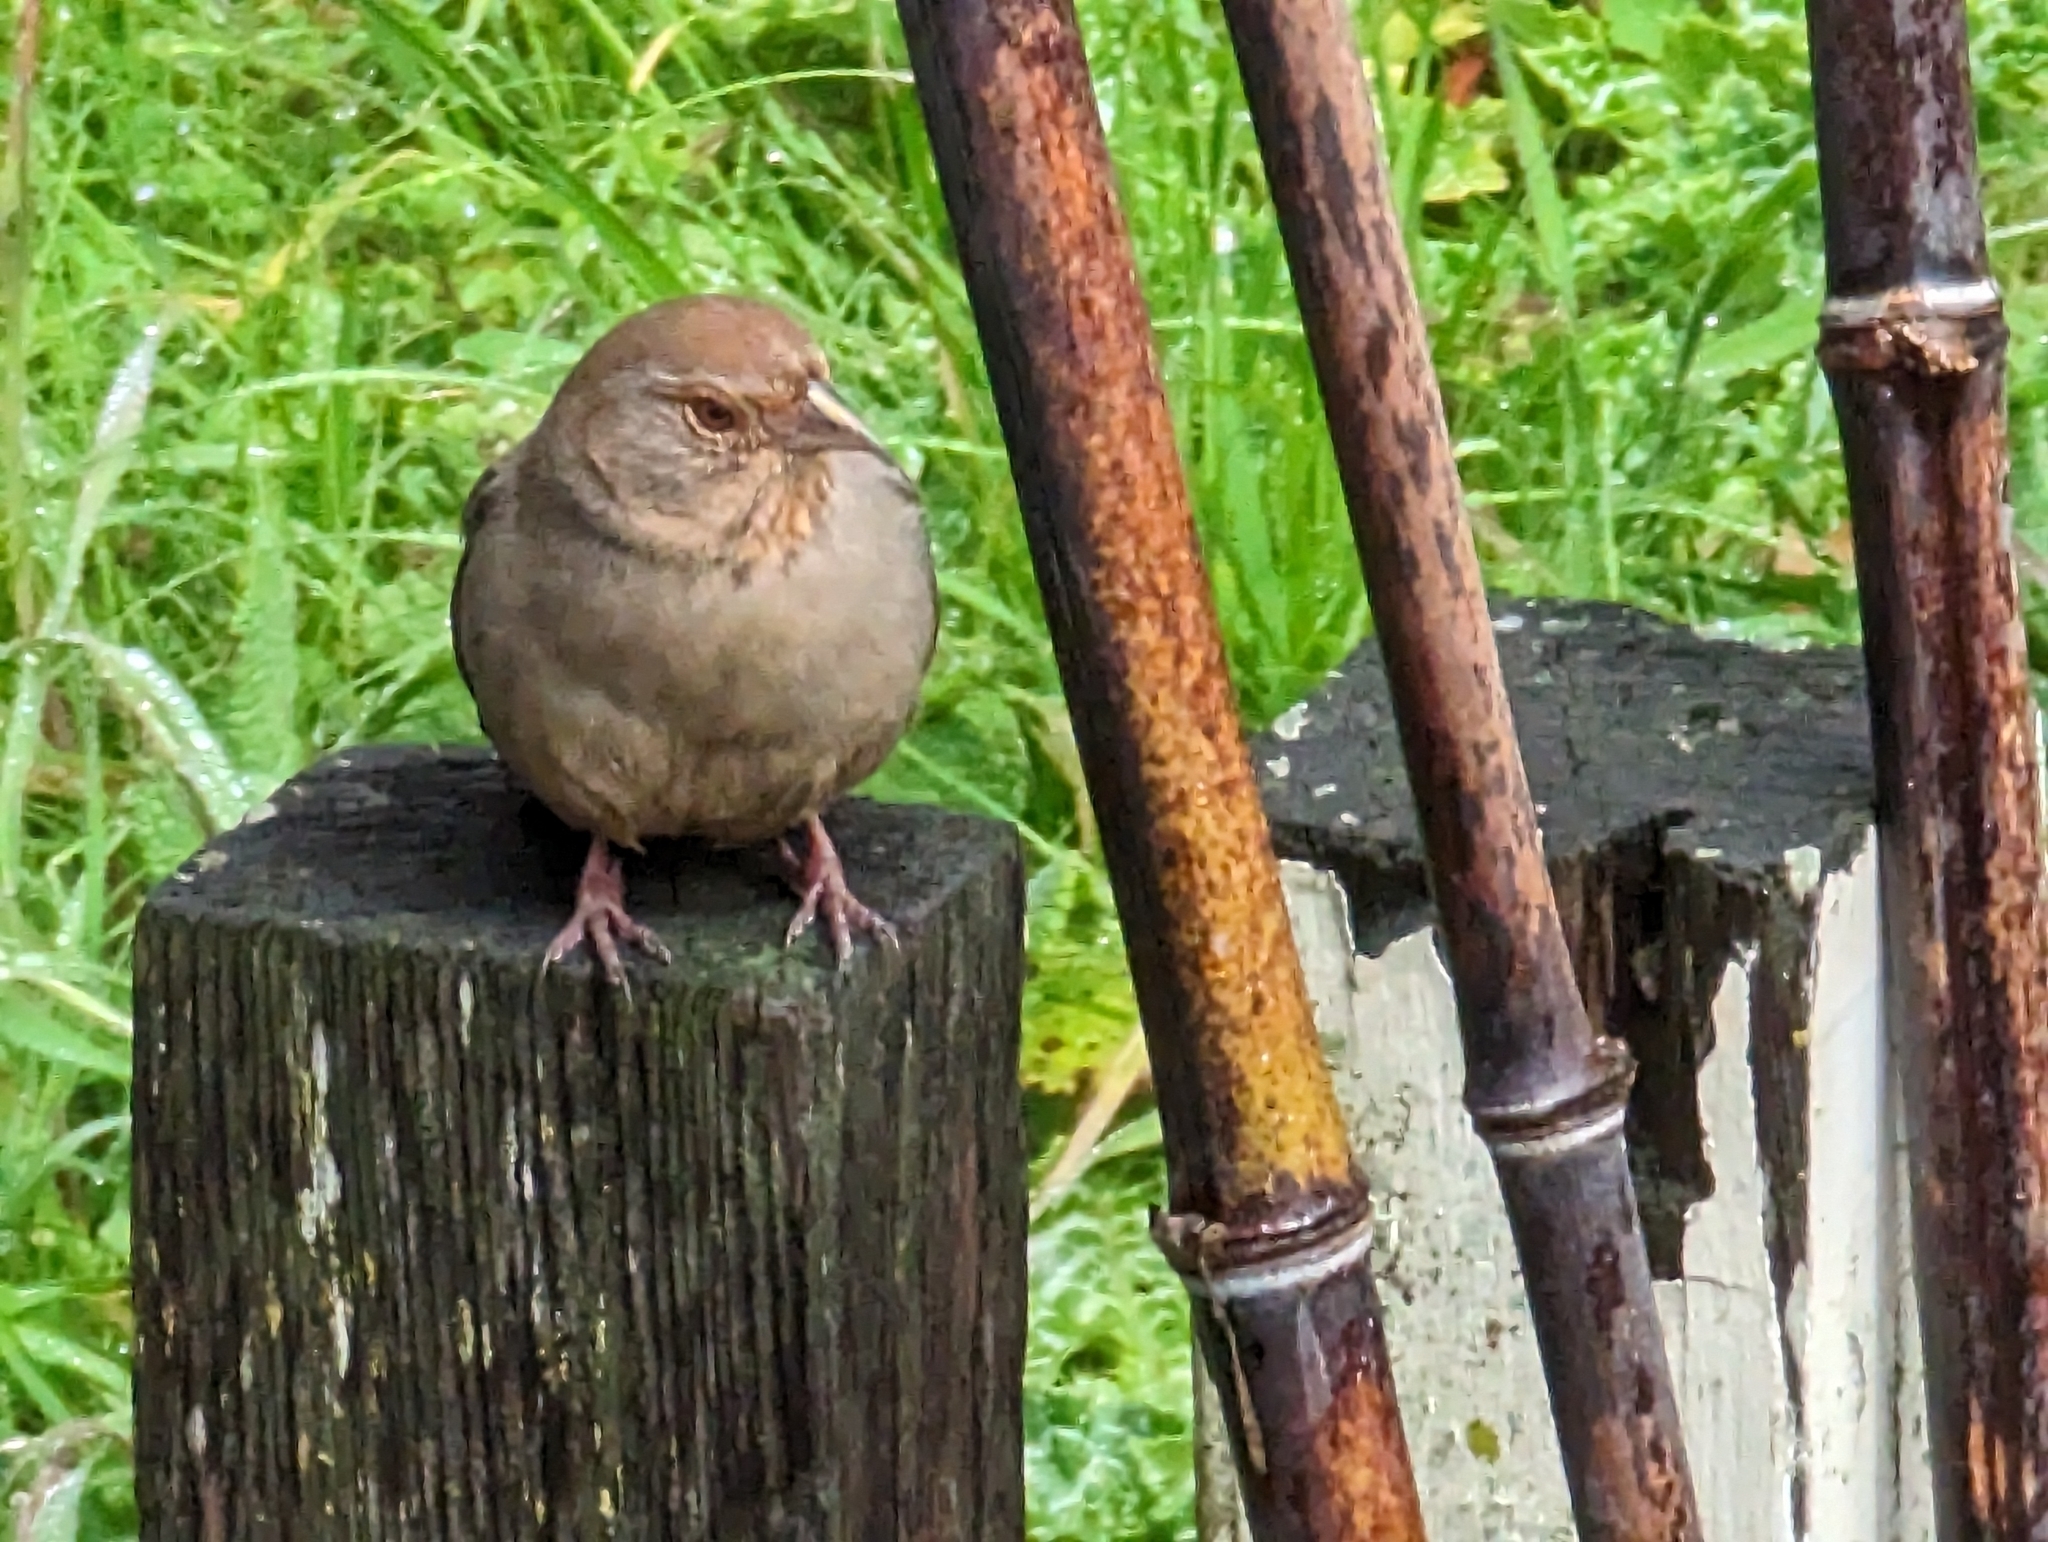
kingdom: Animalia
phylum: Chordata
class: Aves
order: Passeriformes
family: Passerellidae
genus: Melozone
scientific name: Melozone crissalis
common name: California towhee
